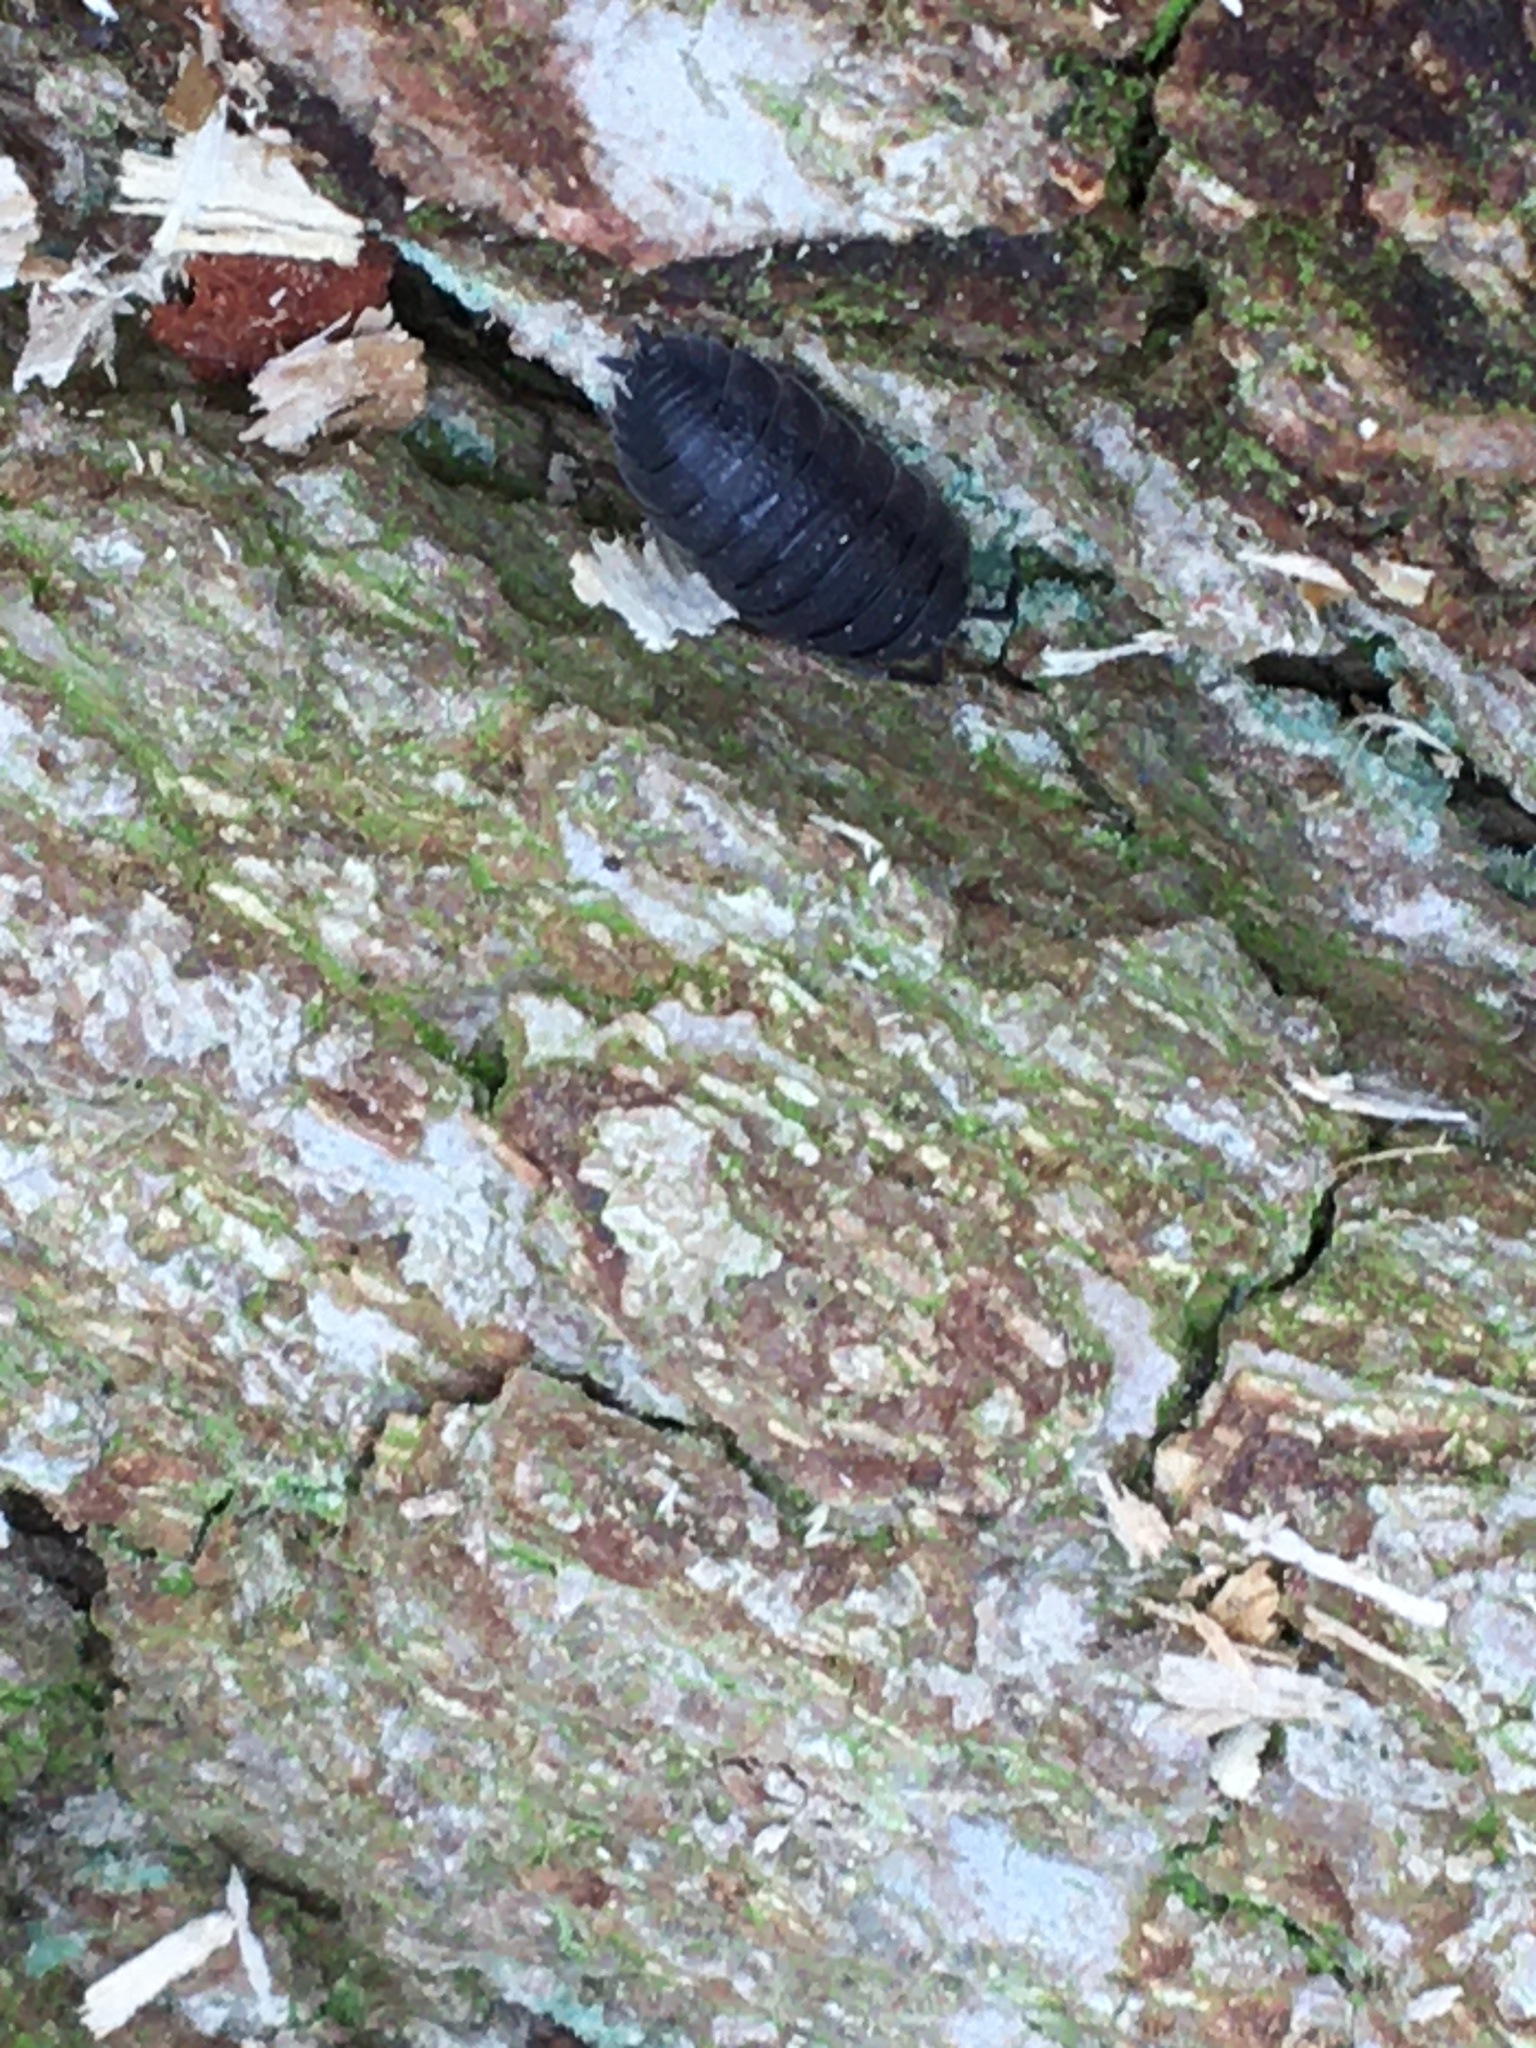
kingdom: Animalia
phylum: Arthropoda
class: Malacostraca
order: Isopoda
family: Porcellionidae
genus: Porcellio
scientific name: Porcellio scaber
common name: Common rough woodlouse
